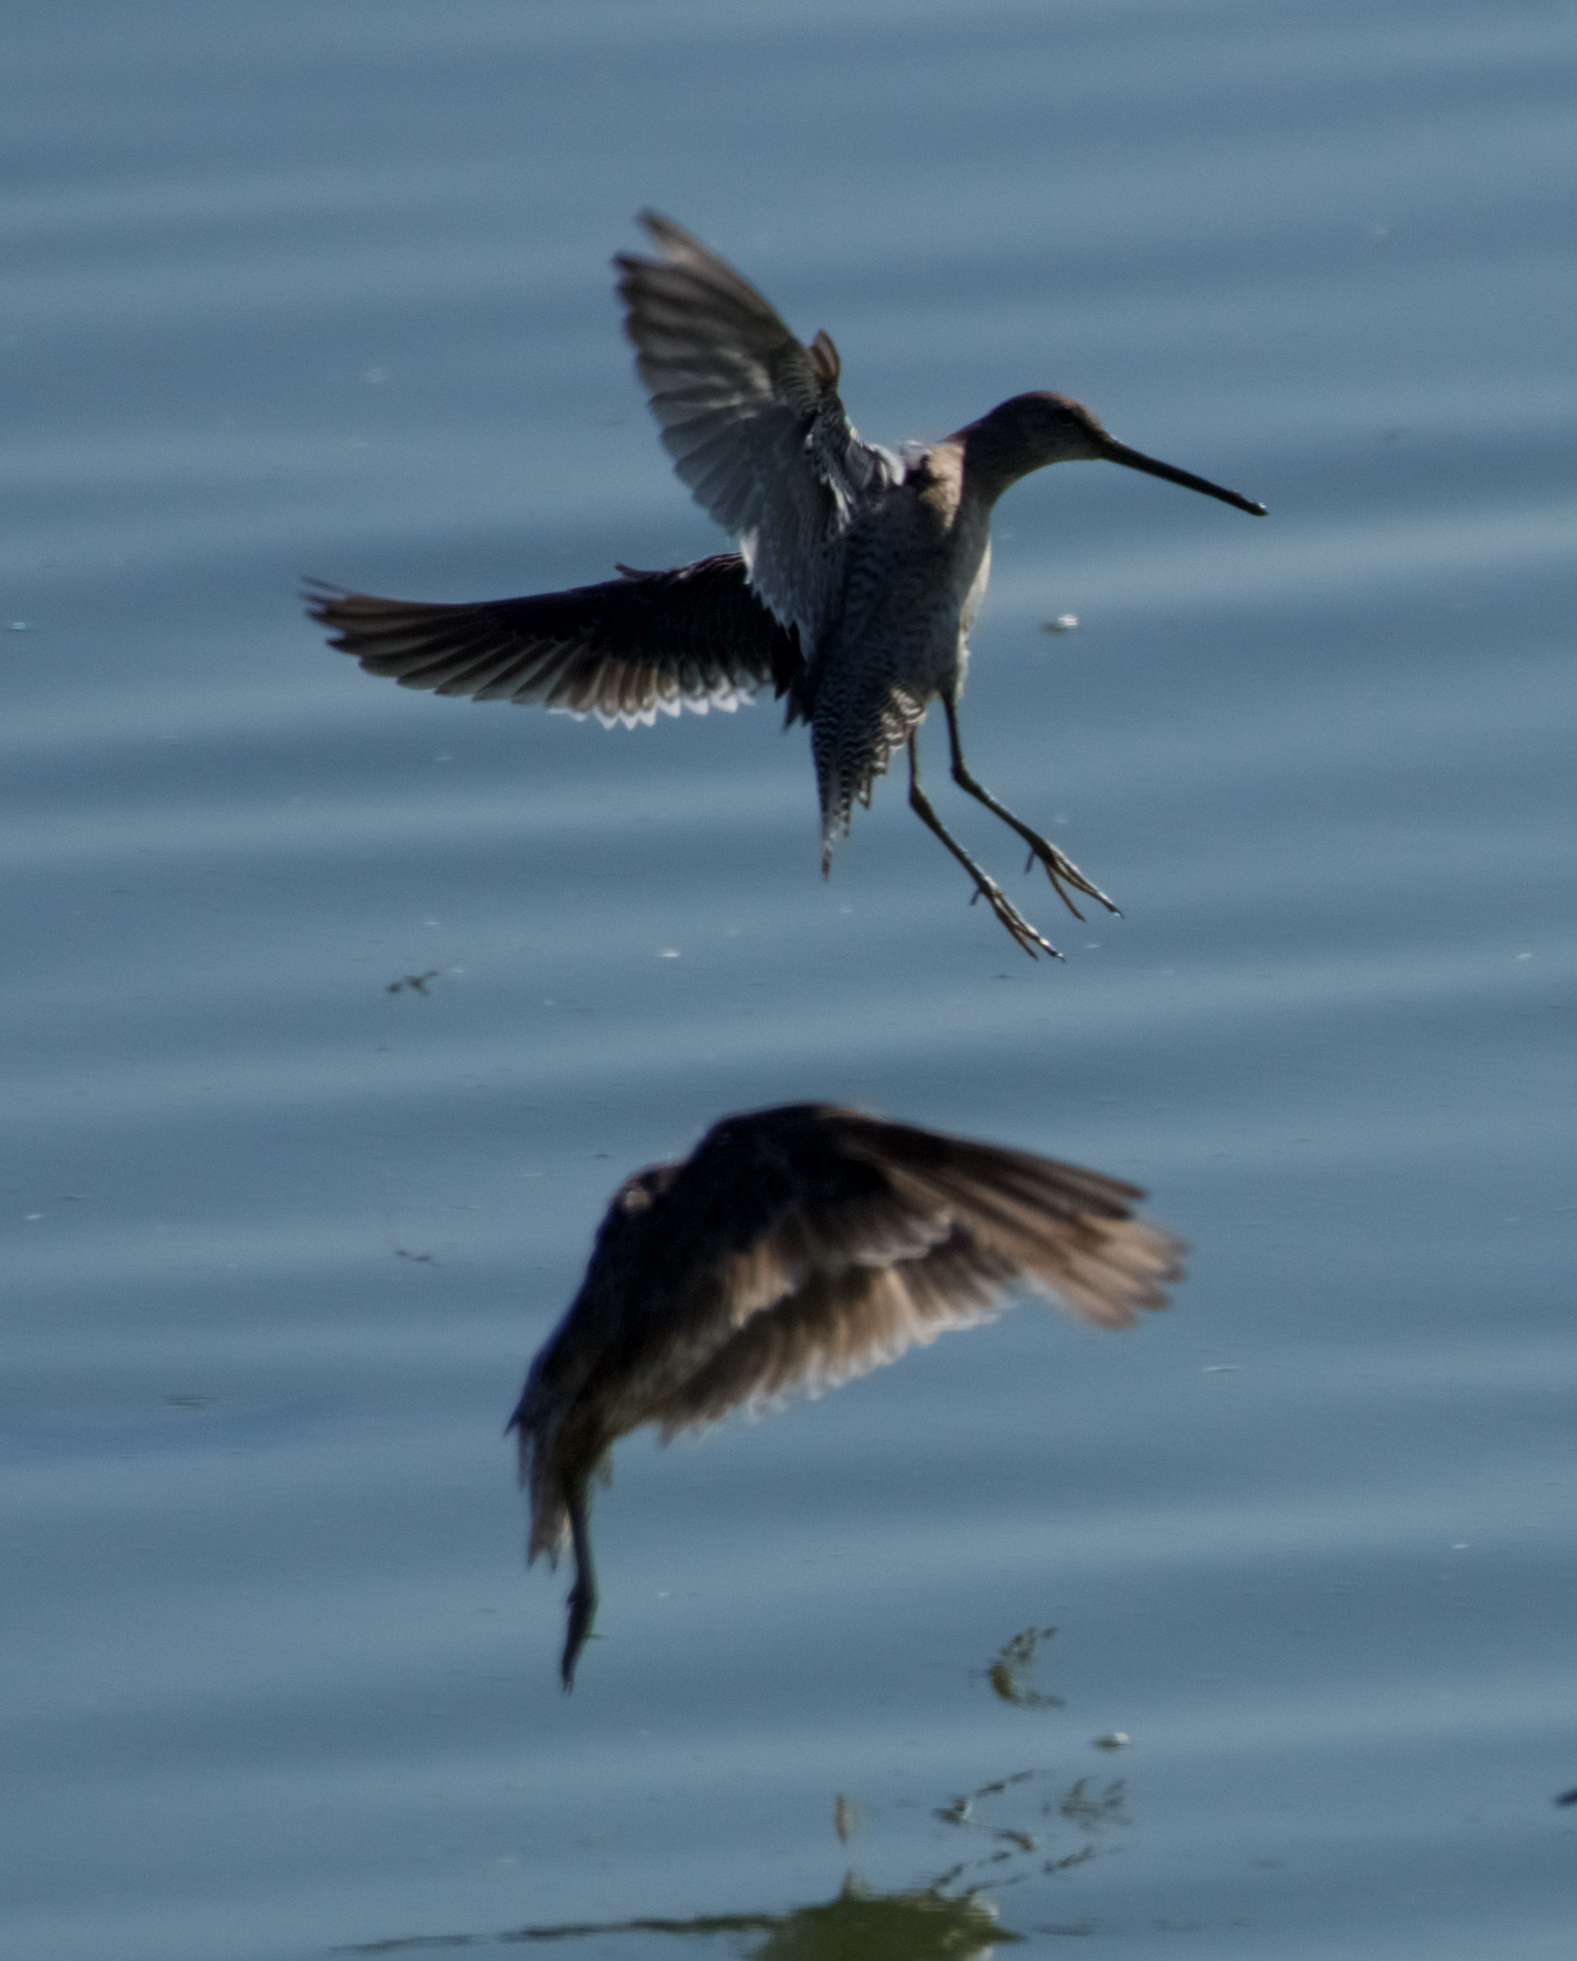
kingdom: Animalia
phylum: Chordata
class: Aves
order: Charadriiformes
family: Scolopacidae
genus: Limnodromus
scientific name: Limnodromus scolopaceus
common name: Long-billed dowitcher
